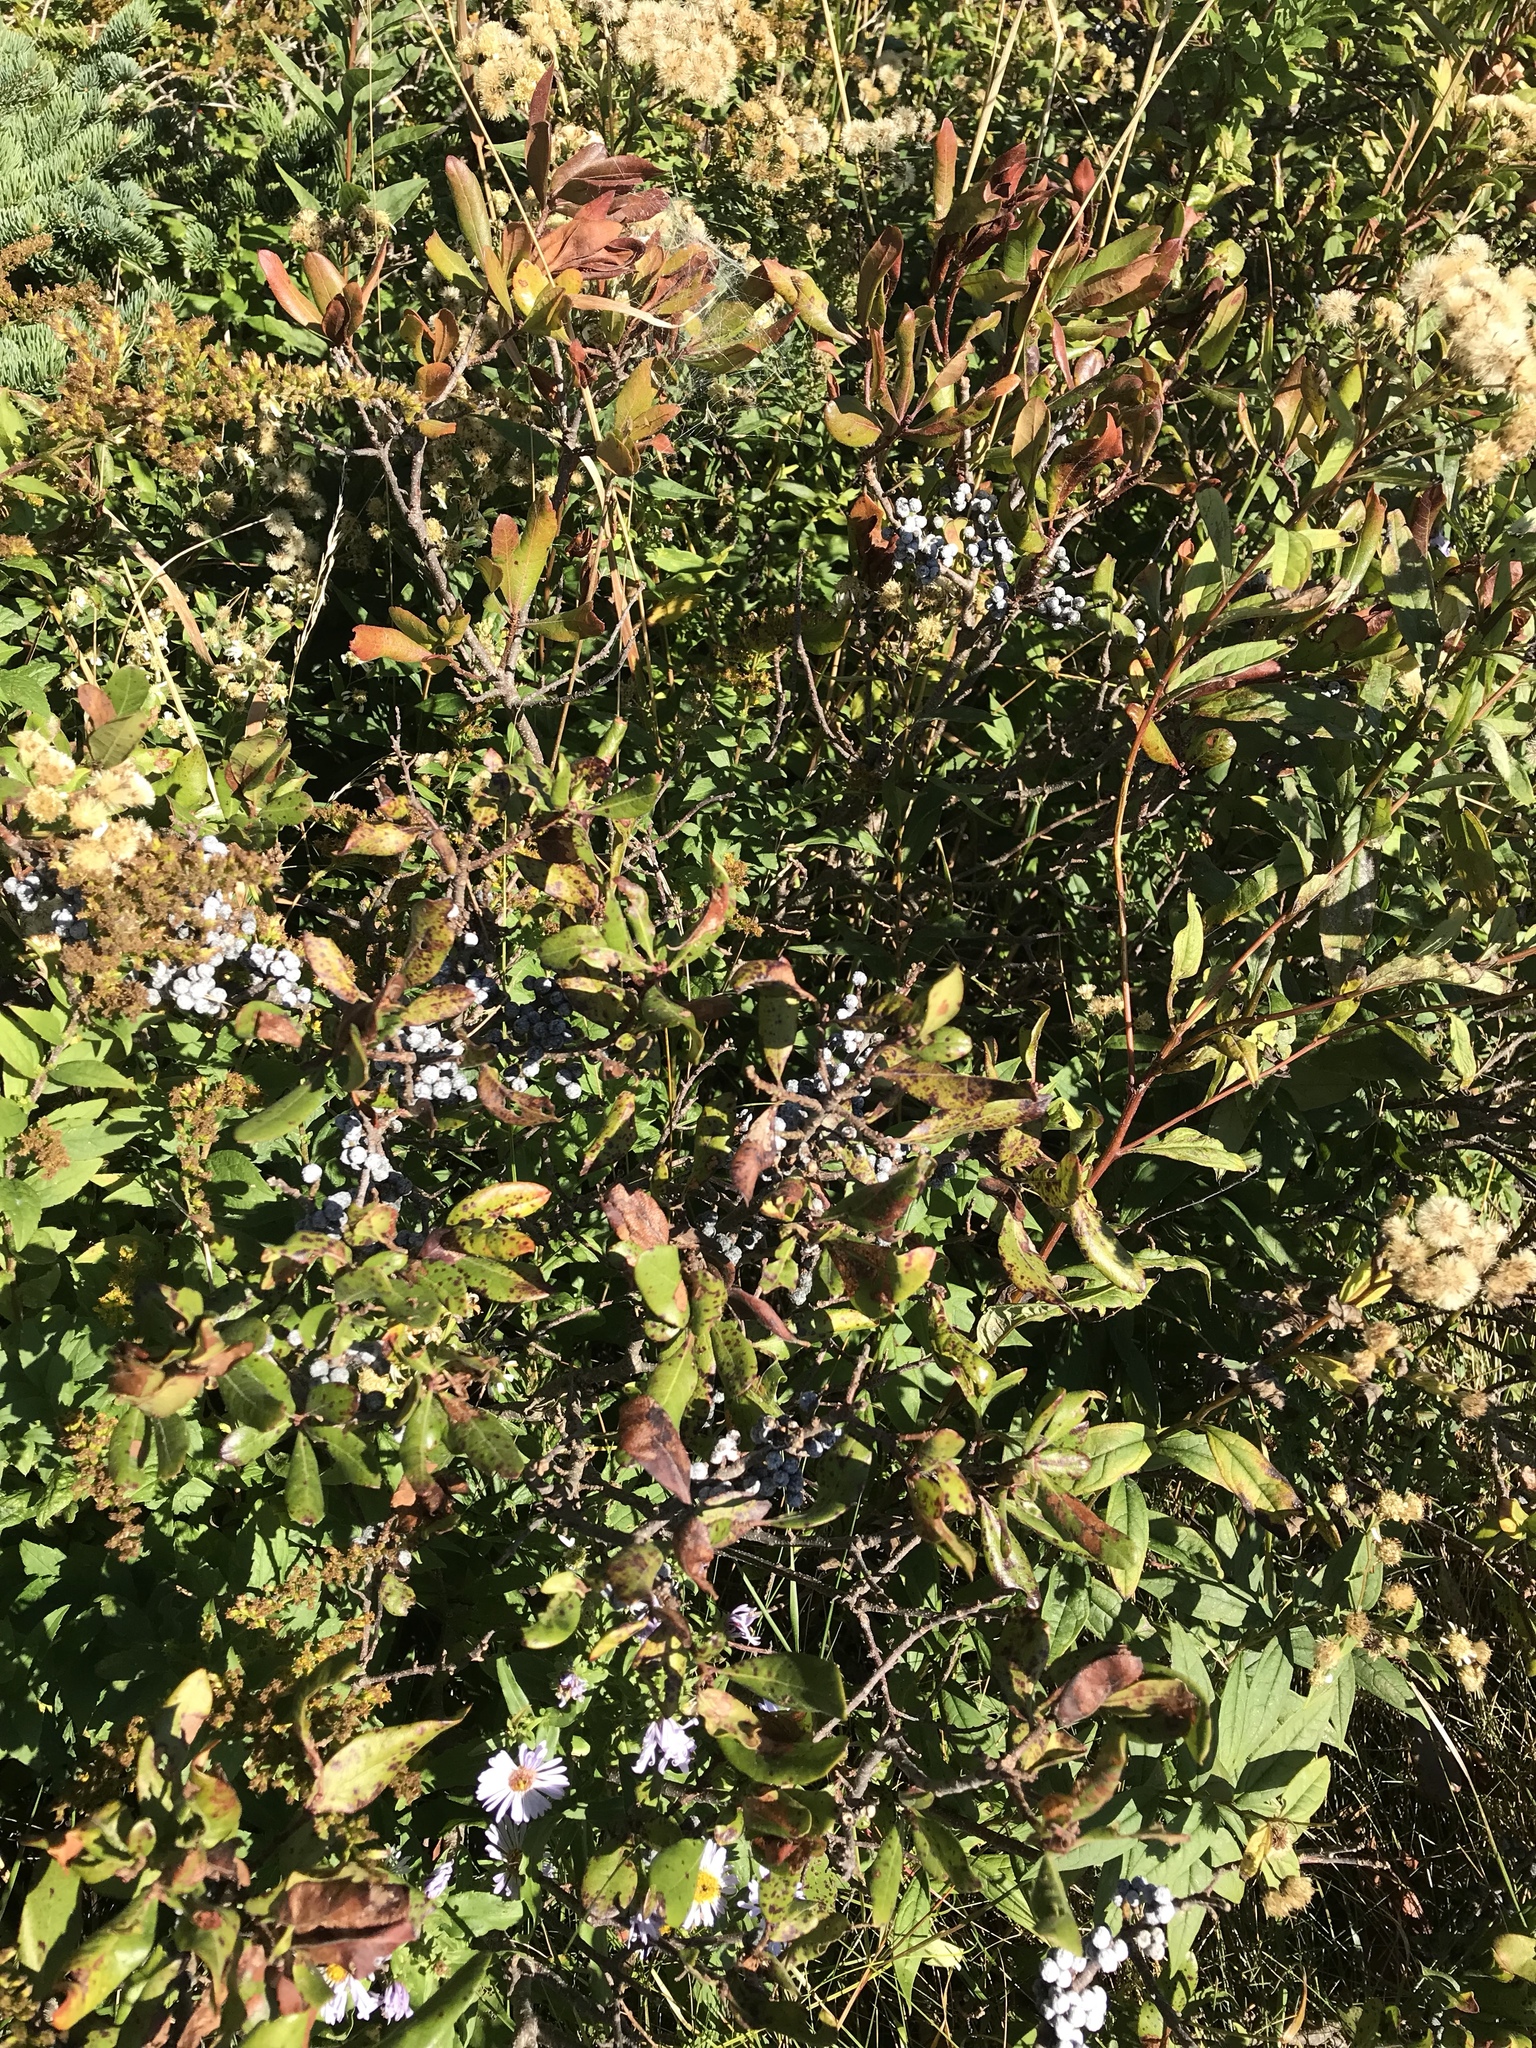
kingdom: Plantae
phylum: Tracheophyta
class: Magnoliopsida
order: Fagales
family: Myricaceae
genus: Morella
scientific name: Morella pensylvanica
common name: Northern bayberry
